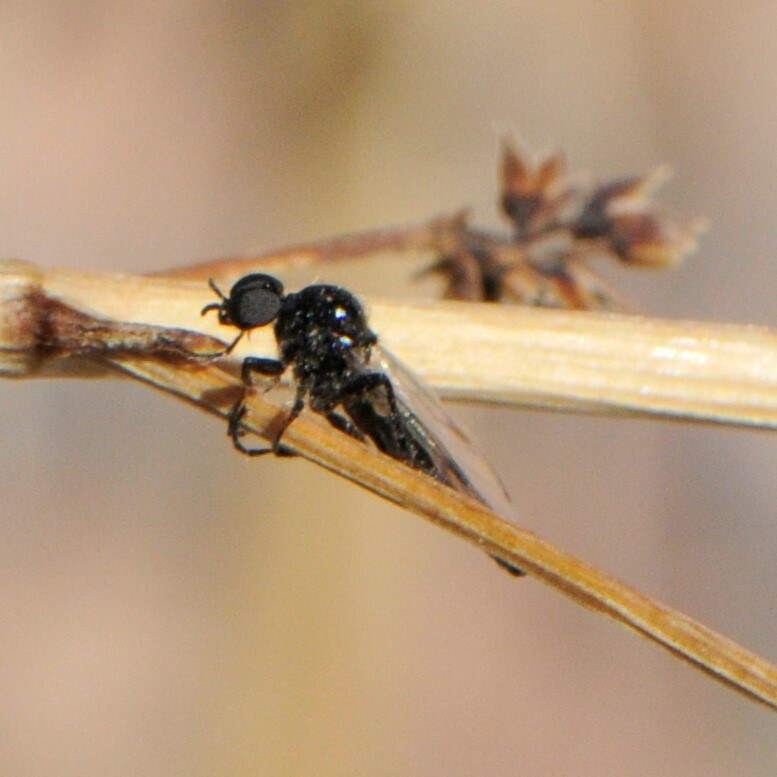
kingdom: Animalia
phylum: Arthropoda
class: Insecta
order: Diptera
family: Bibionidae
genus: Bibiodes
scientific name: Bibiodes halteralis
